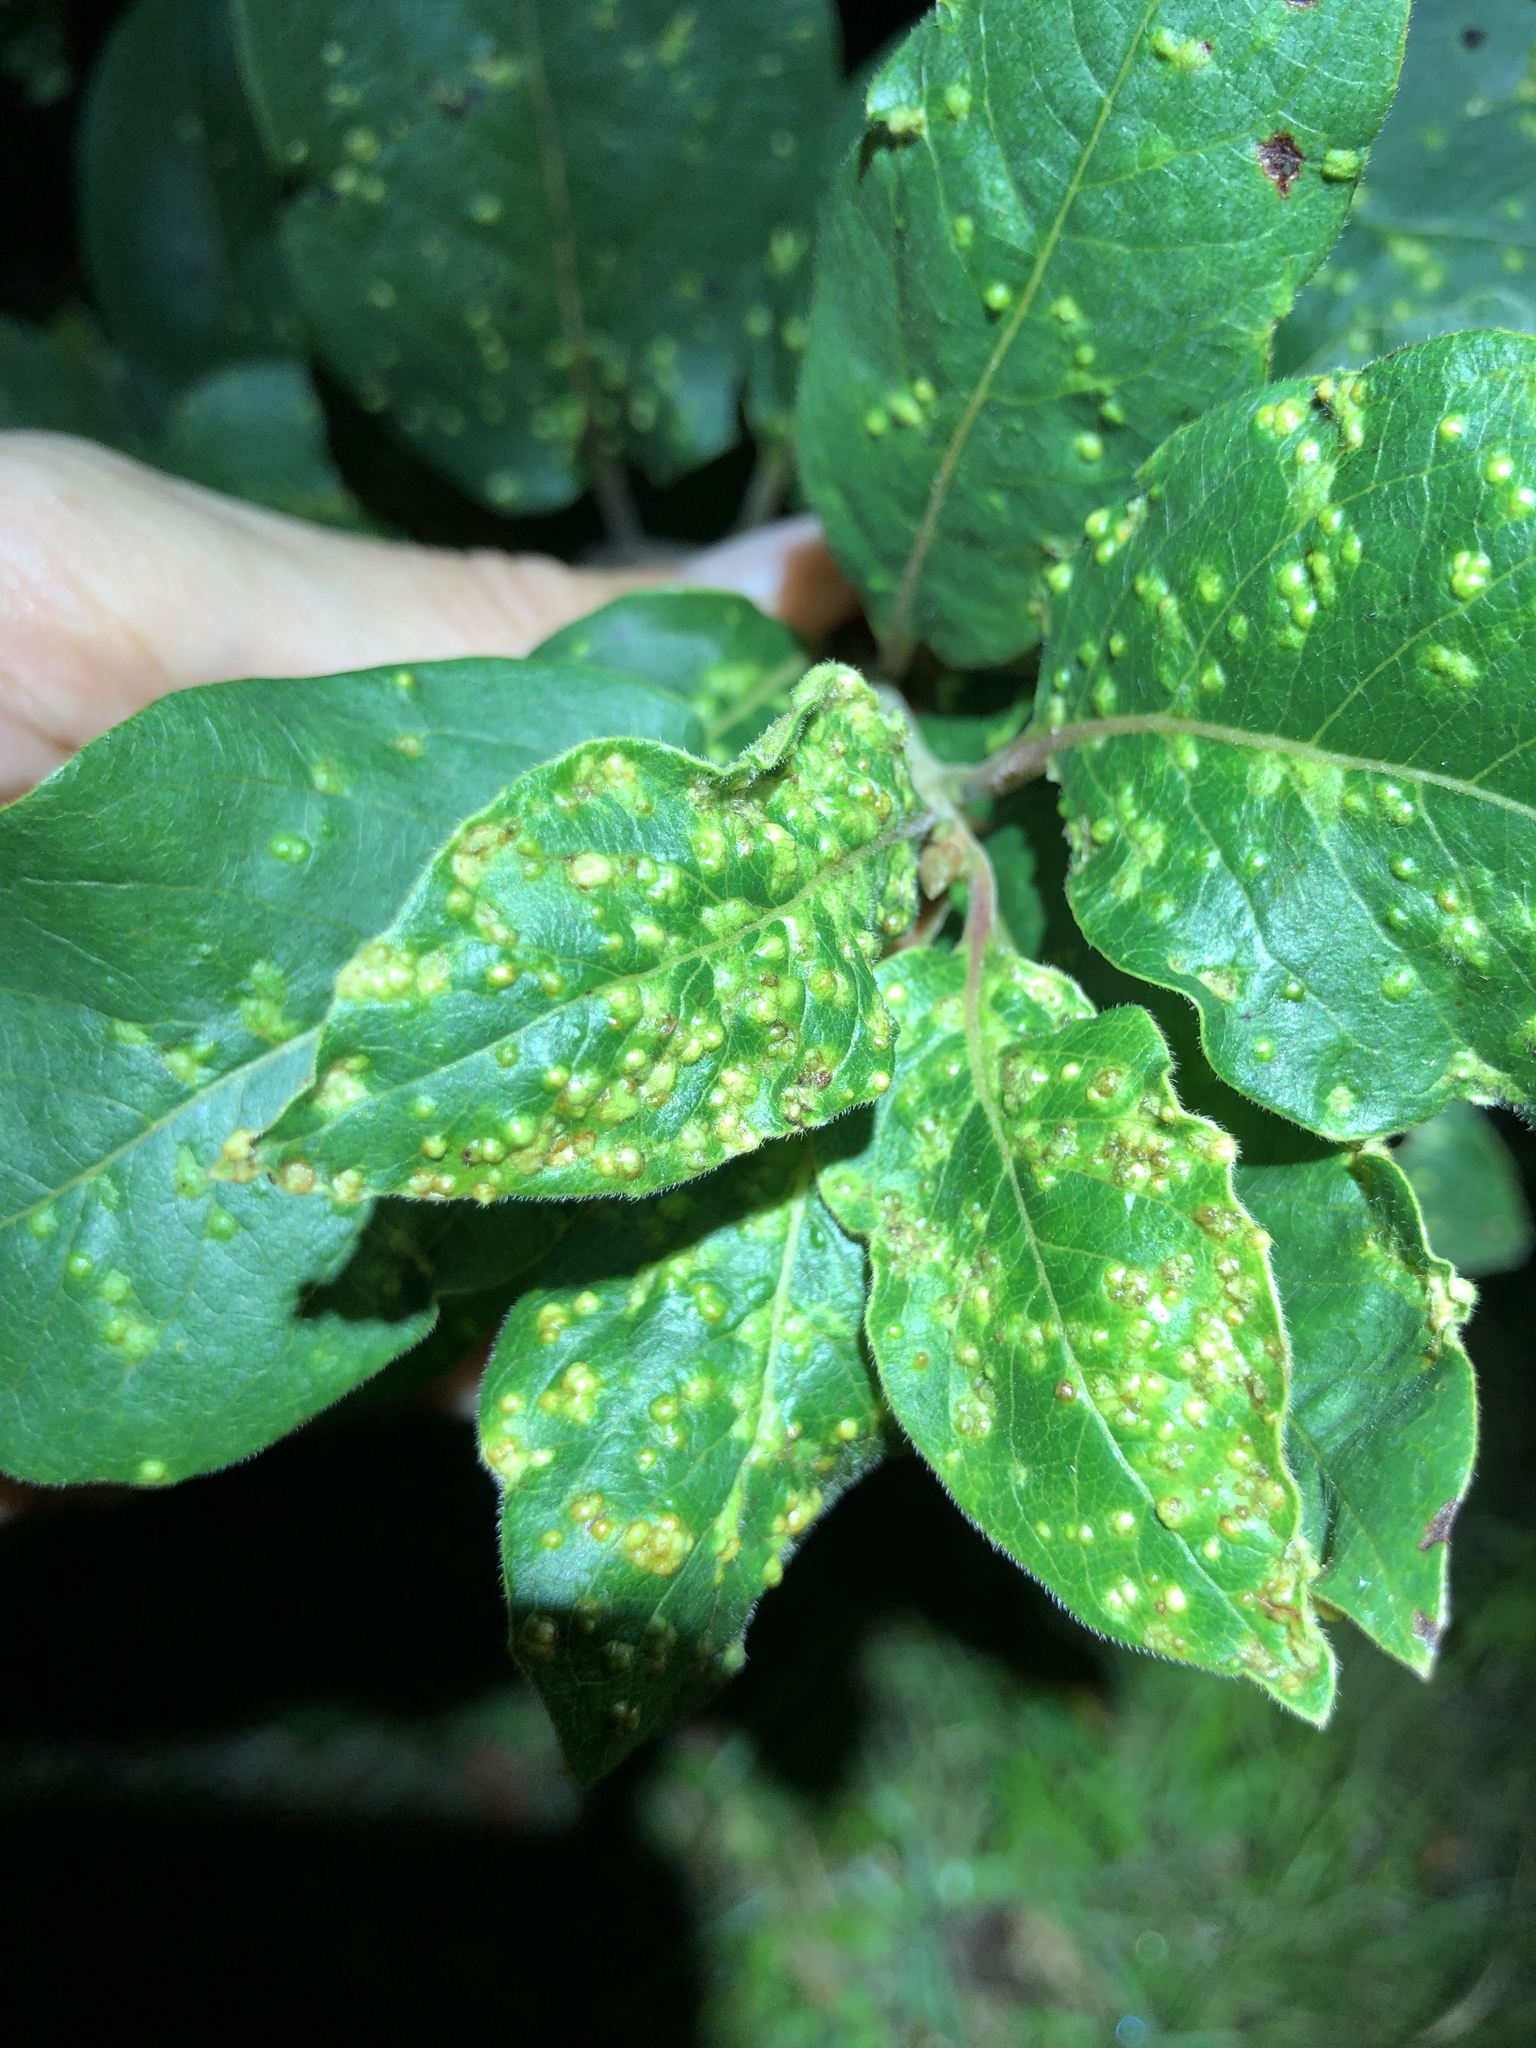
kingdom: Animalia
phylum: Arthropoda
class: Arachnida
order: Trombidiformes
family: Eriophyidae
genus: Aceria
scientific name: Aceria
